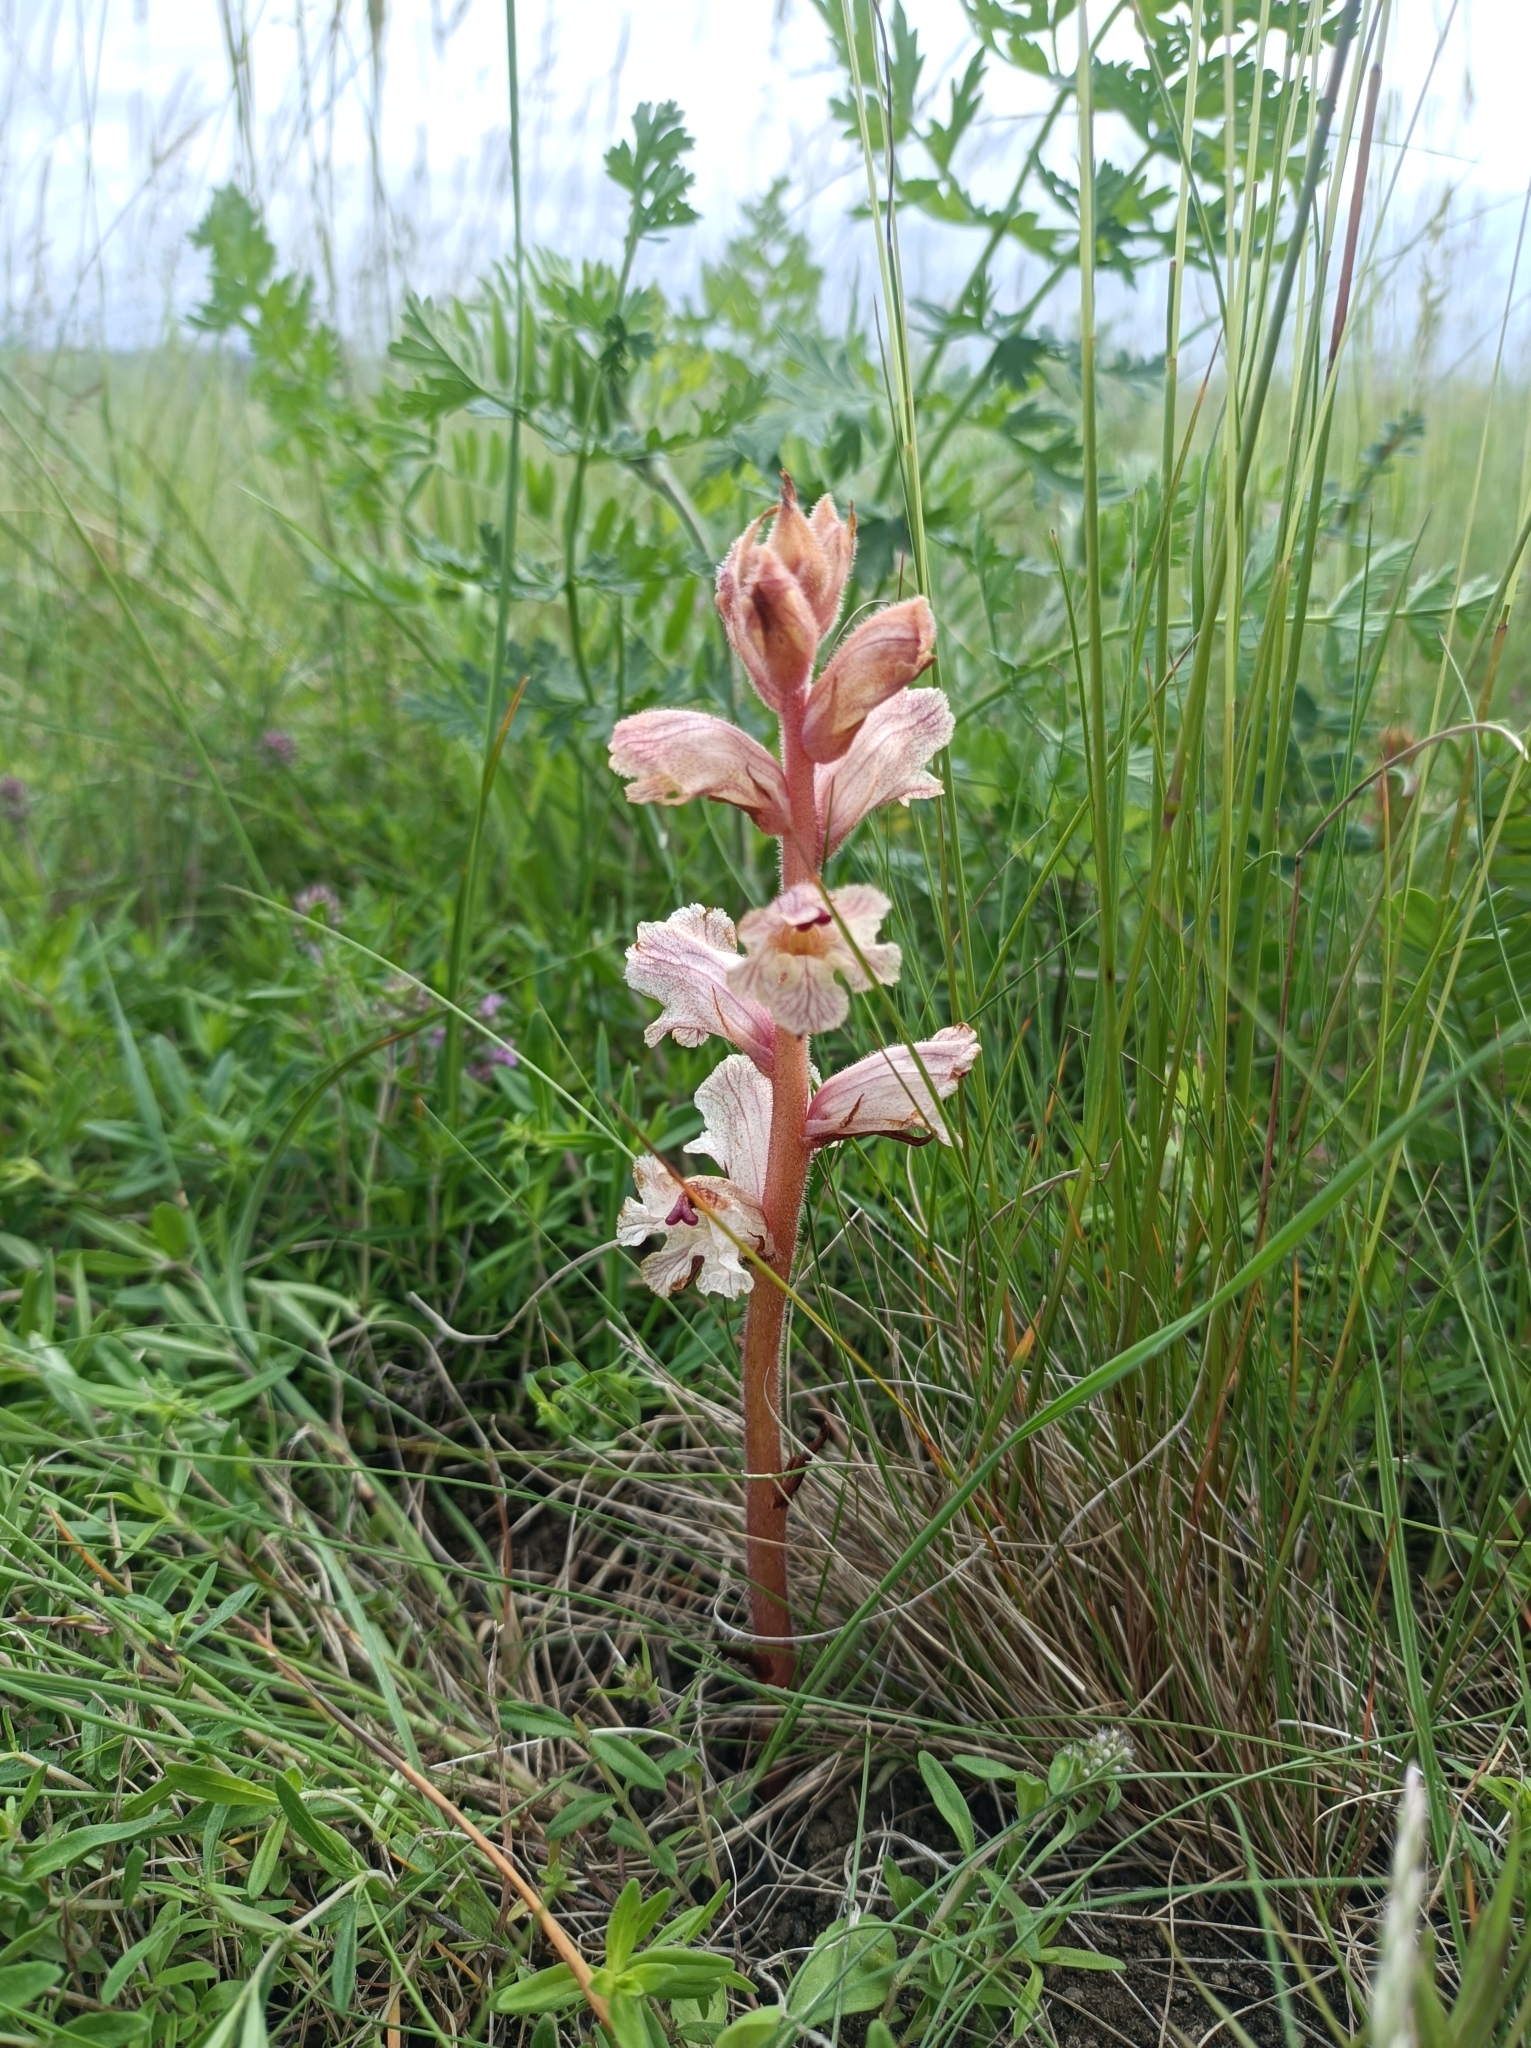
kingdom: Plantae
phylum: Tracheophyta
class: Magnoliopsida
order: Lamiales
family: Orobanchaceae
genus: Orobanche
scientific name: Orobanche alba
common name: Thyme broomrape
